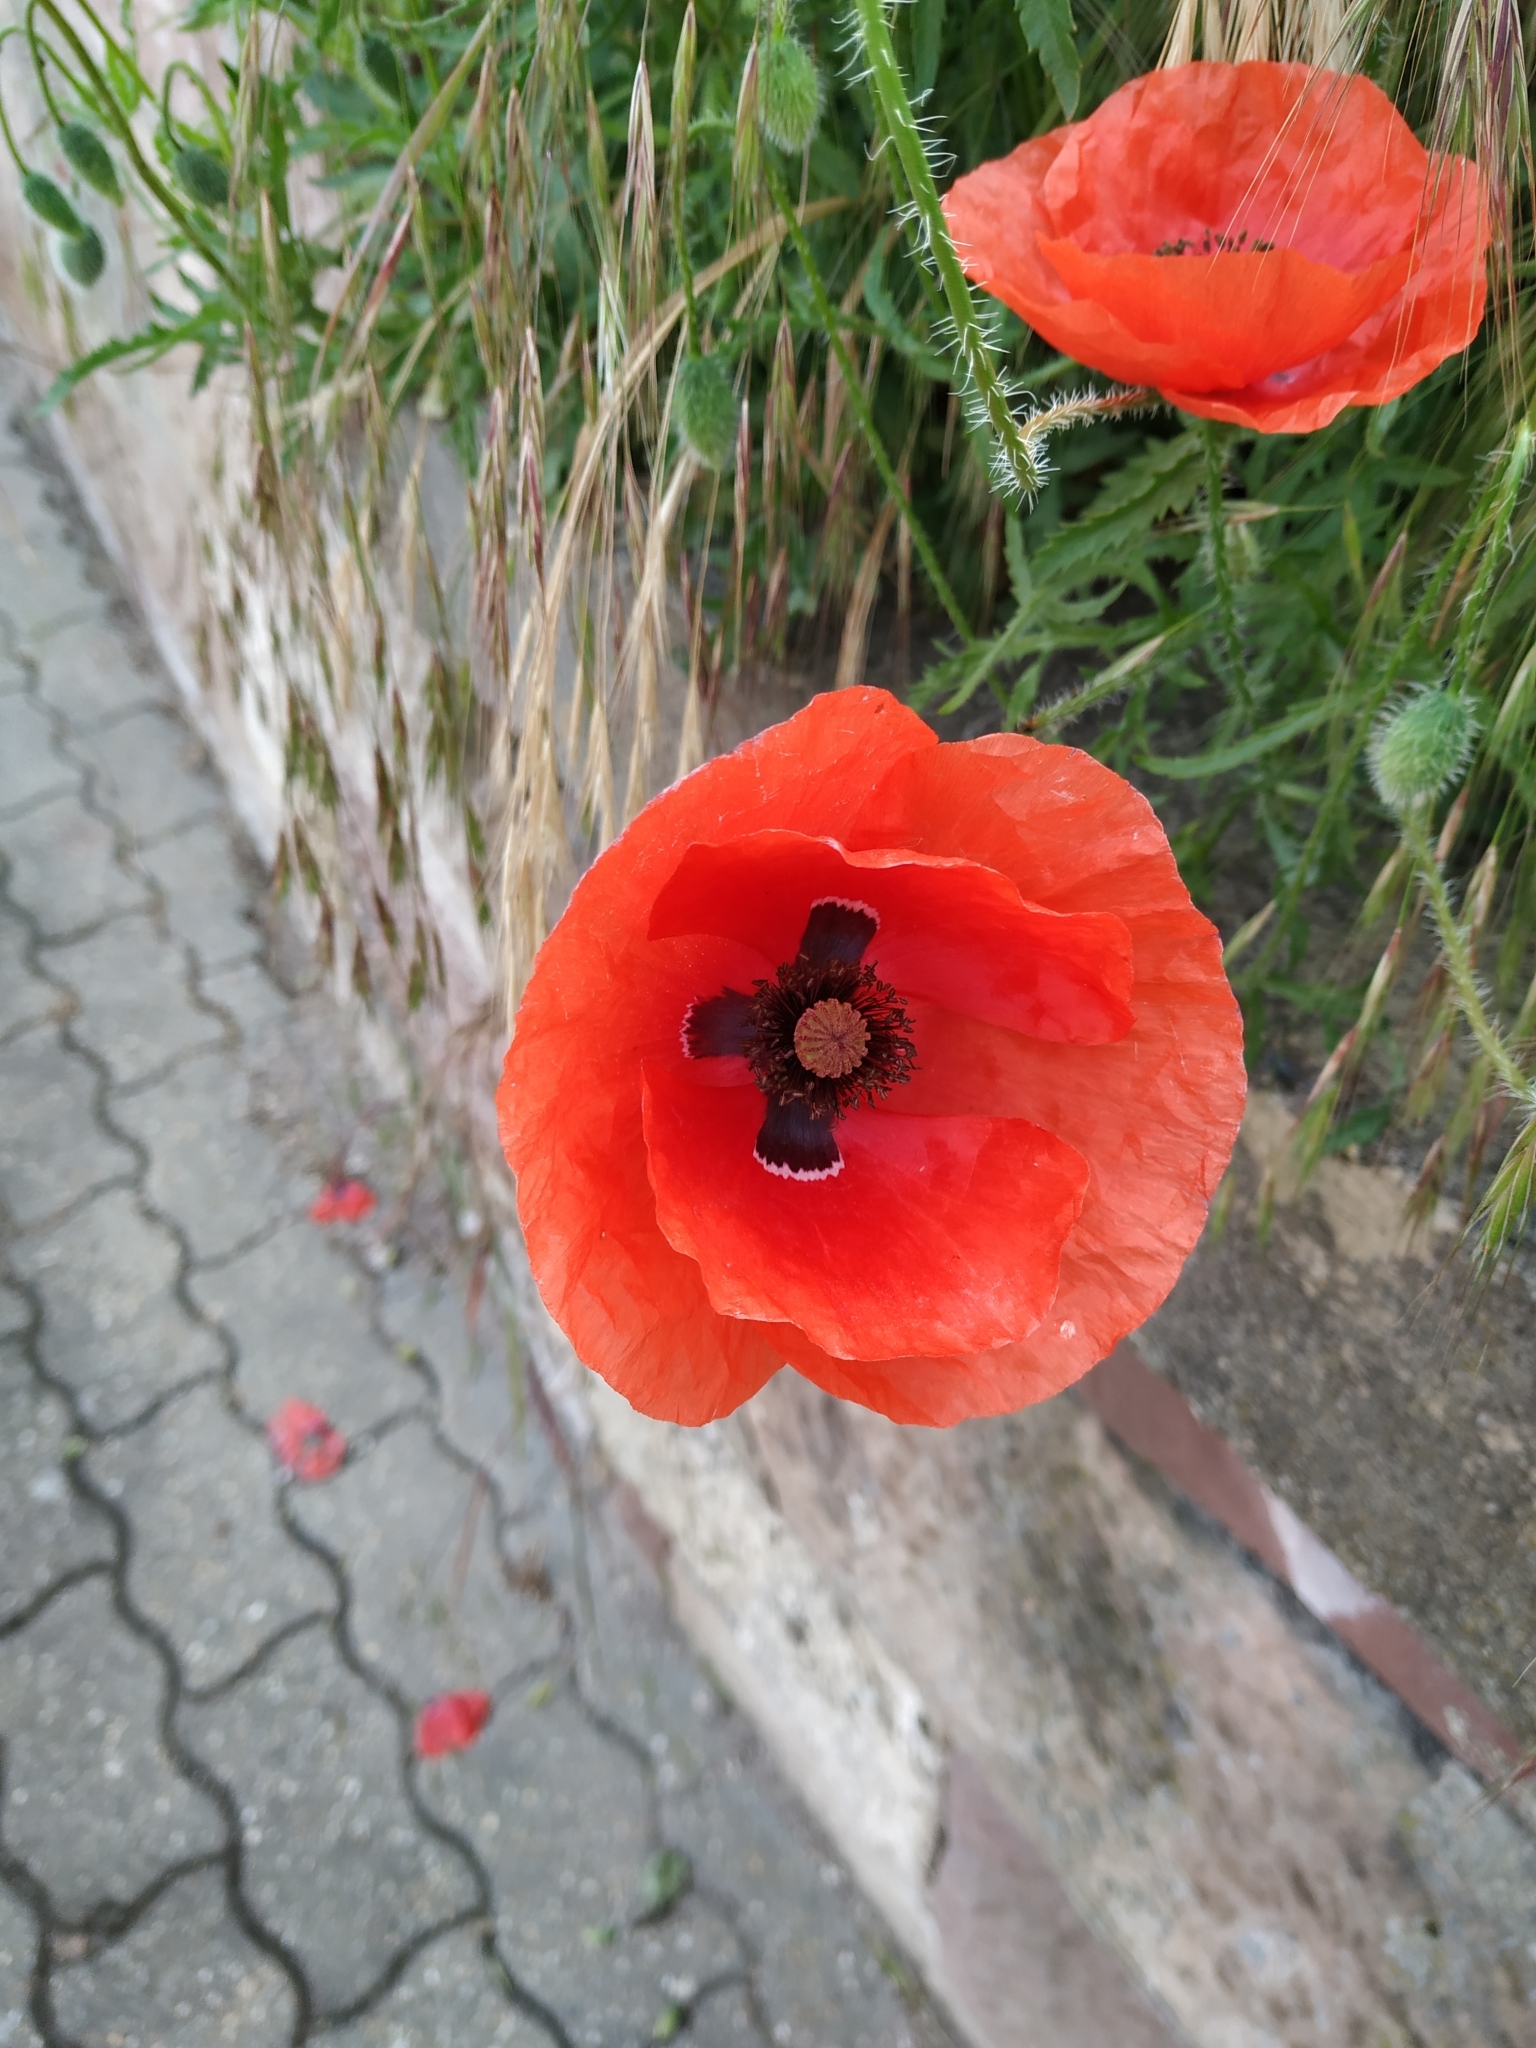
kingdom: Plantae
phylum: Tracheophyta
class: Magnoliopsida
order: Ranunculales
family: Papaveraceae
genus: Papaver
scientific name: Papaver rhoeas
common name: Corn poppy
